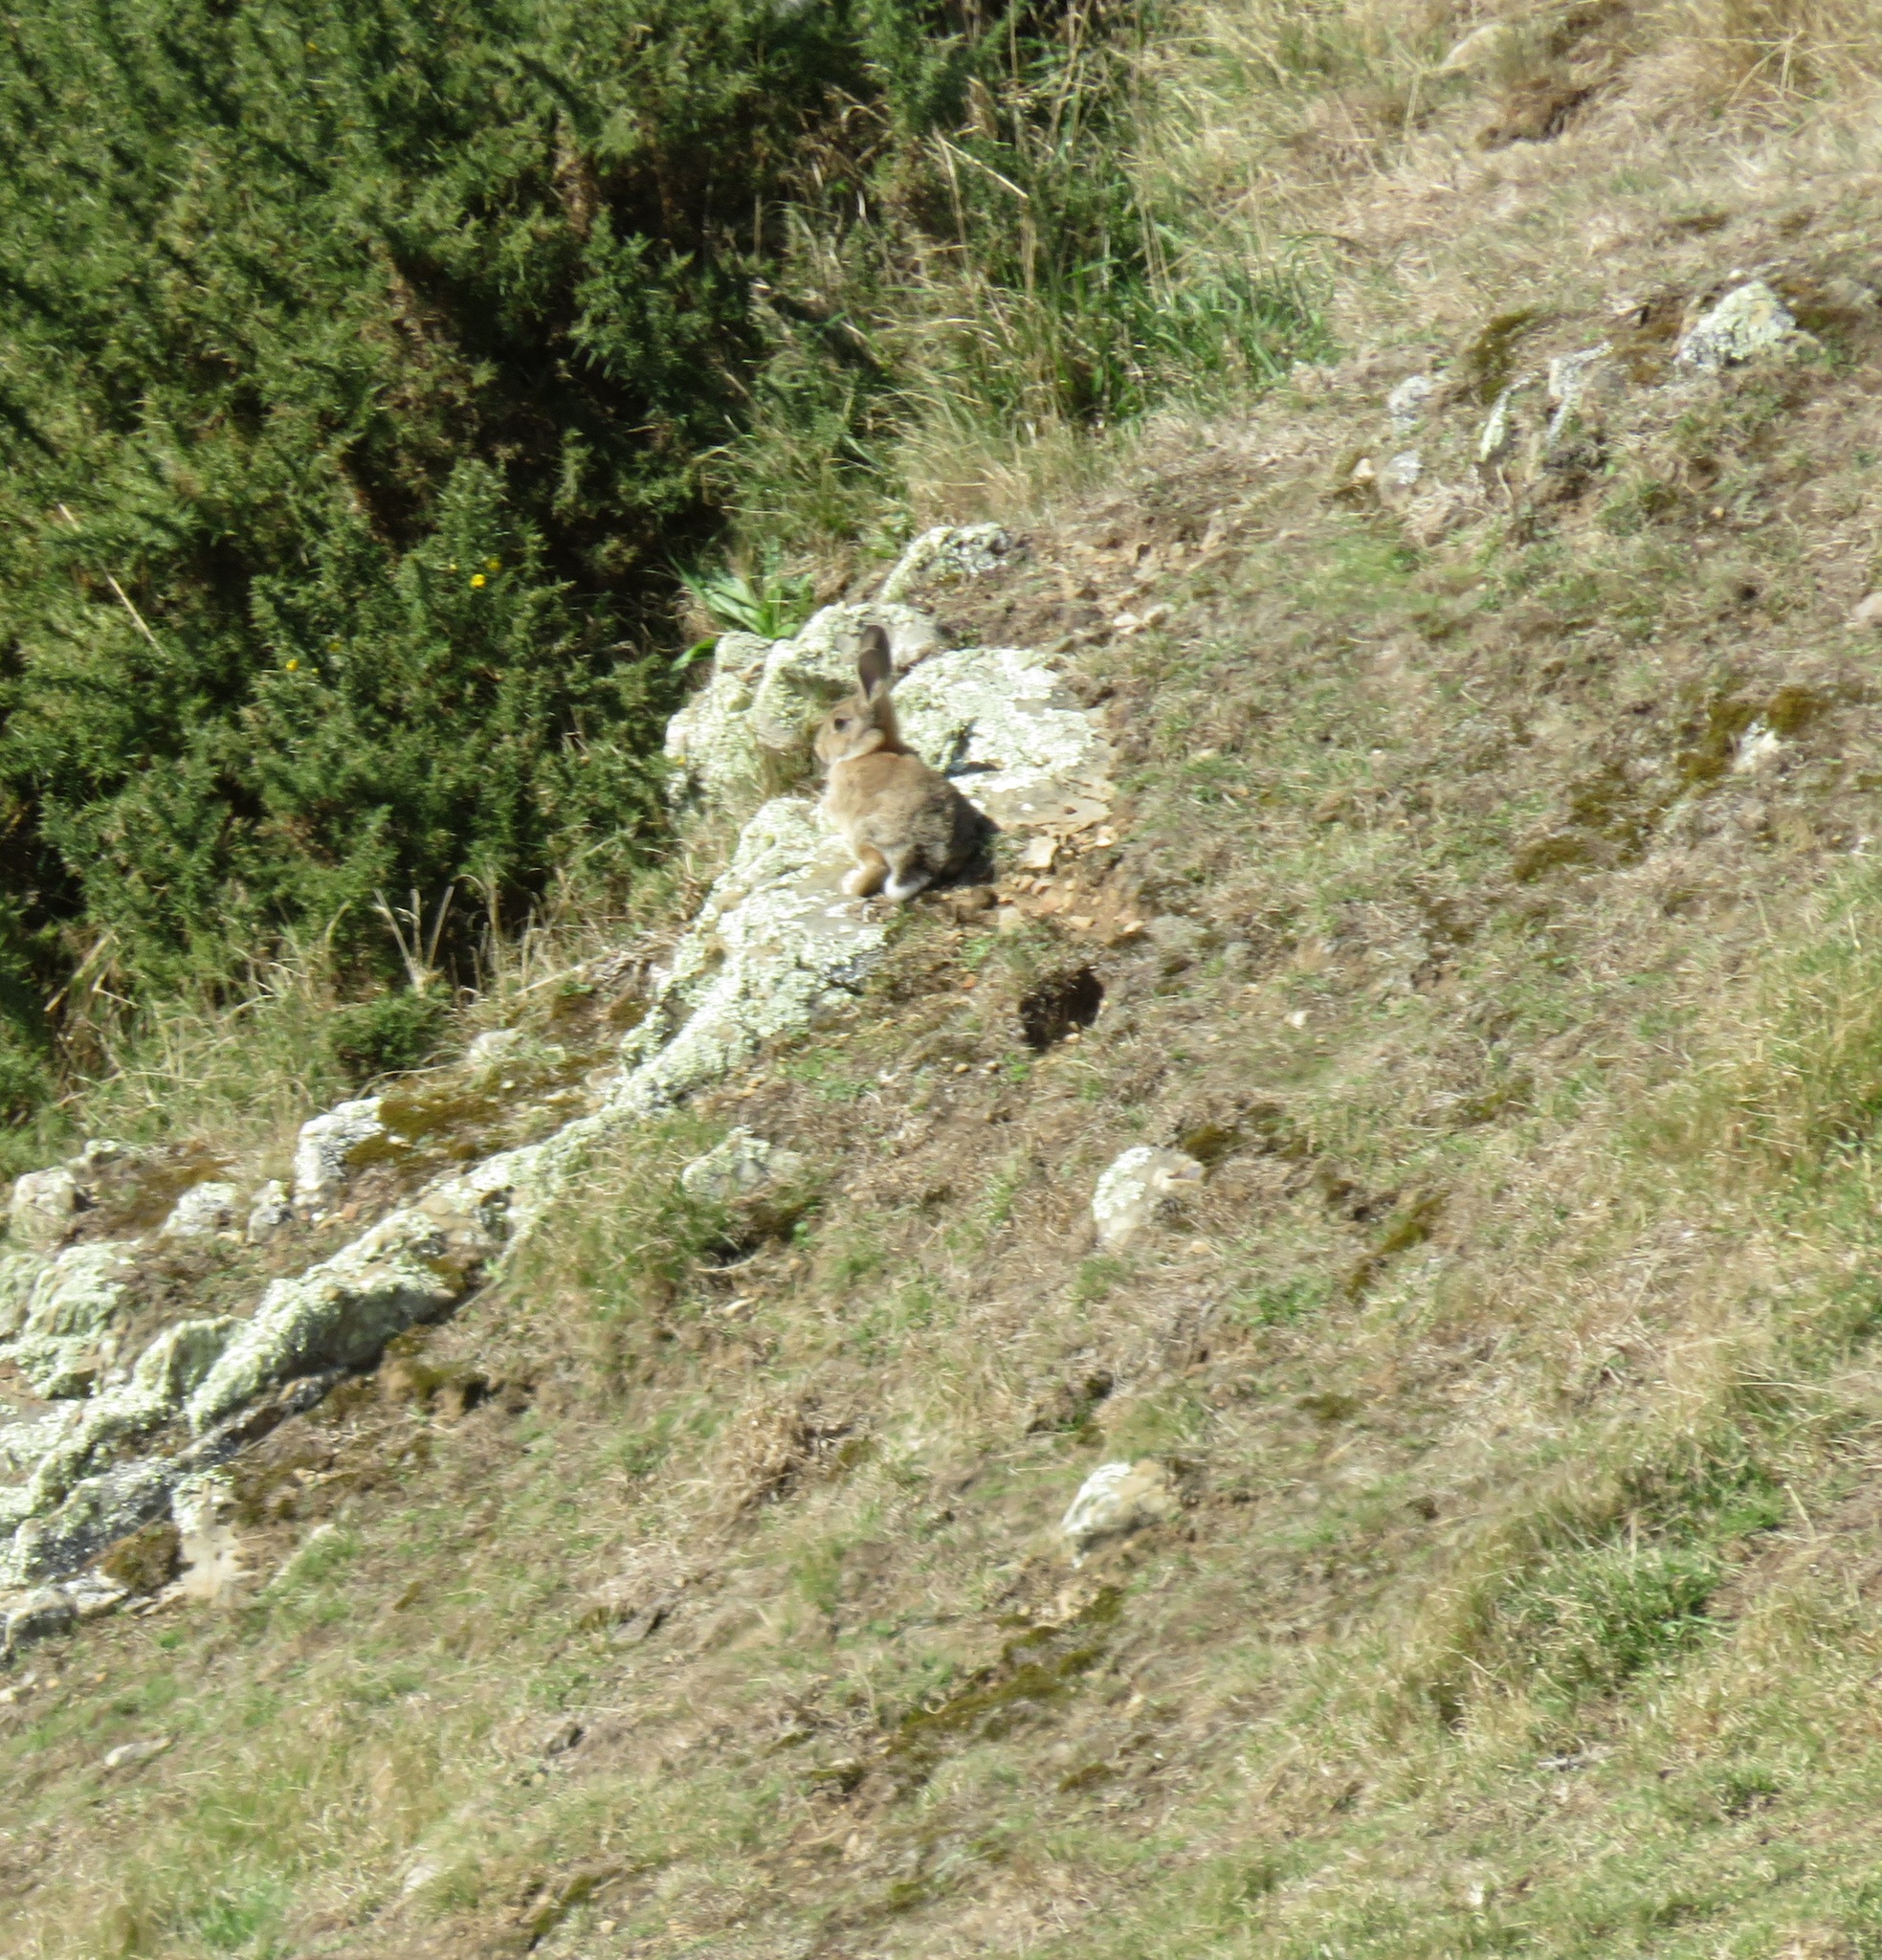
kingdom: Animalia
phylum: Chordata
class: Mammalia
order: Lagomorpha
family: Leporidae
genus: Oryctolagus
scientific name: Oryctolagus cuniculus
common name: European rabbit
